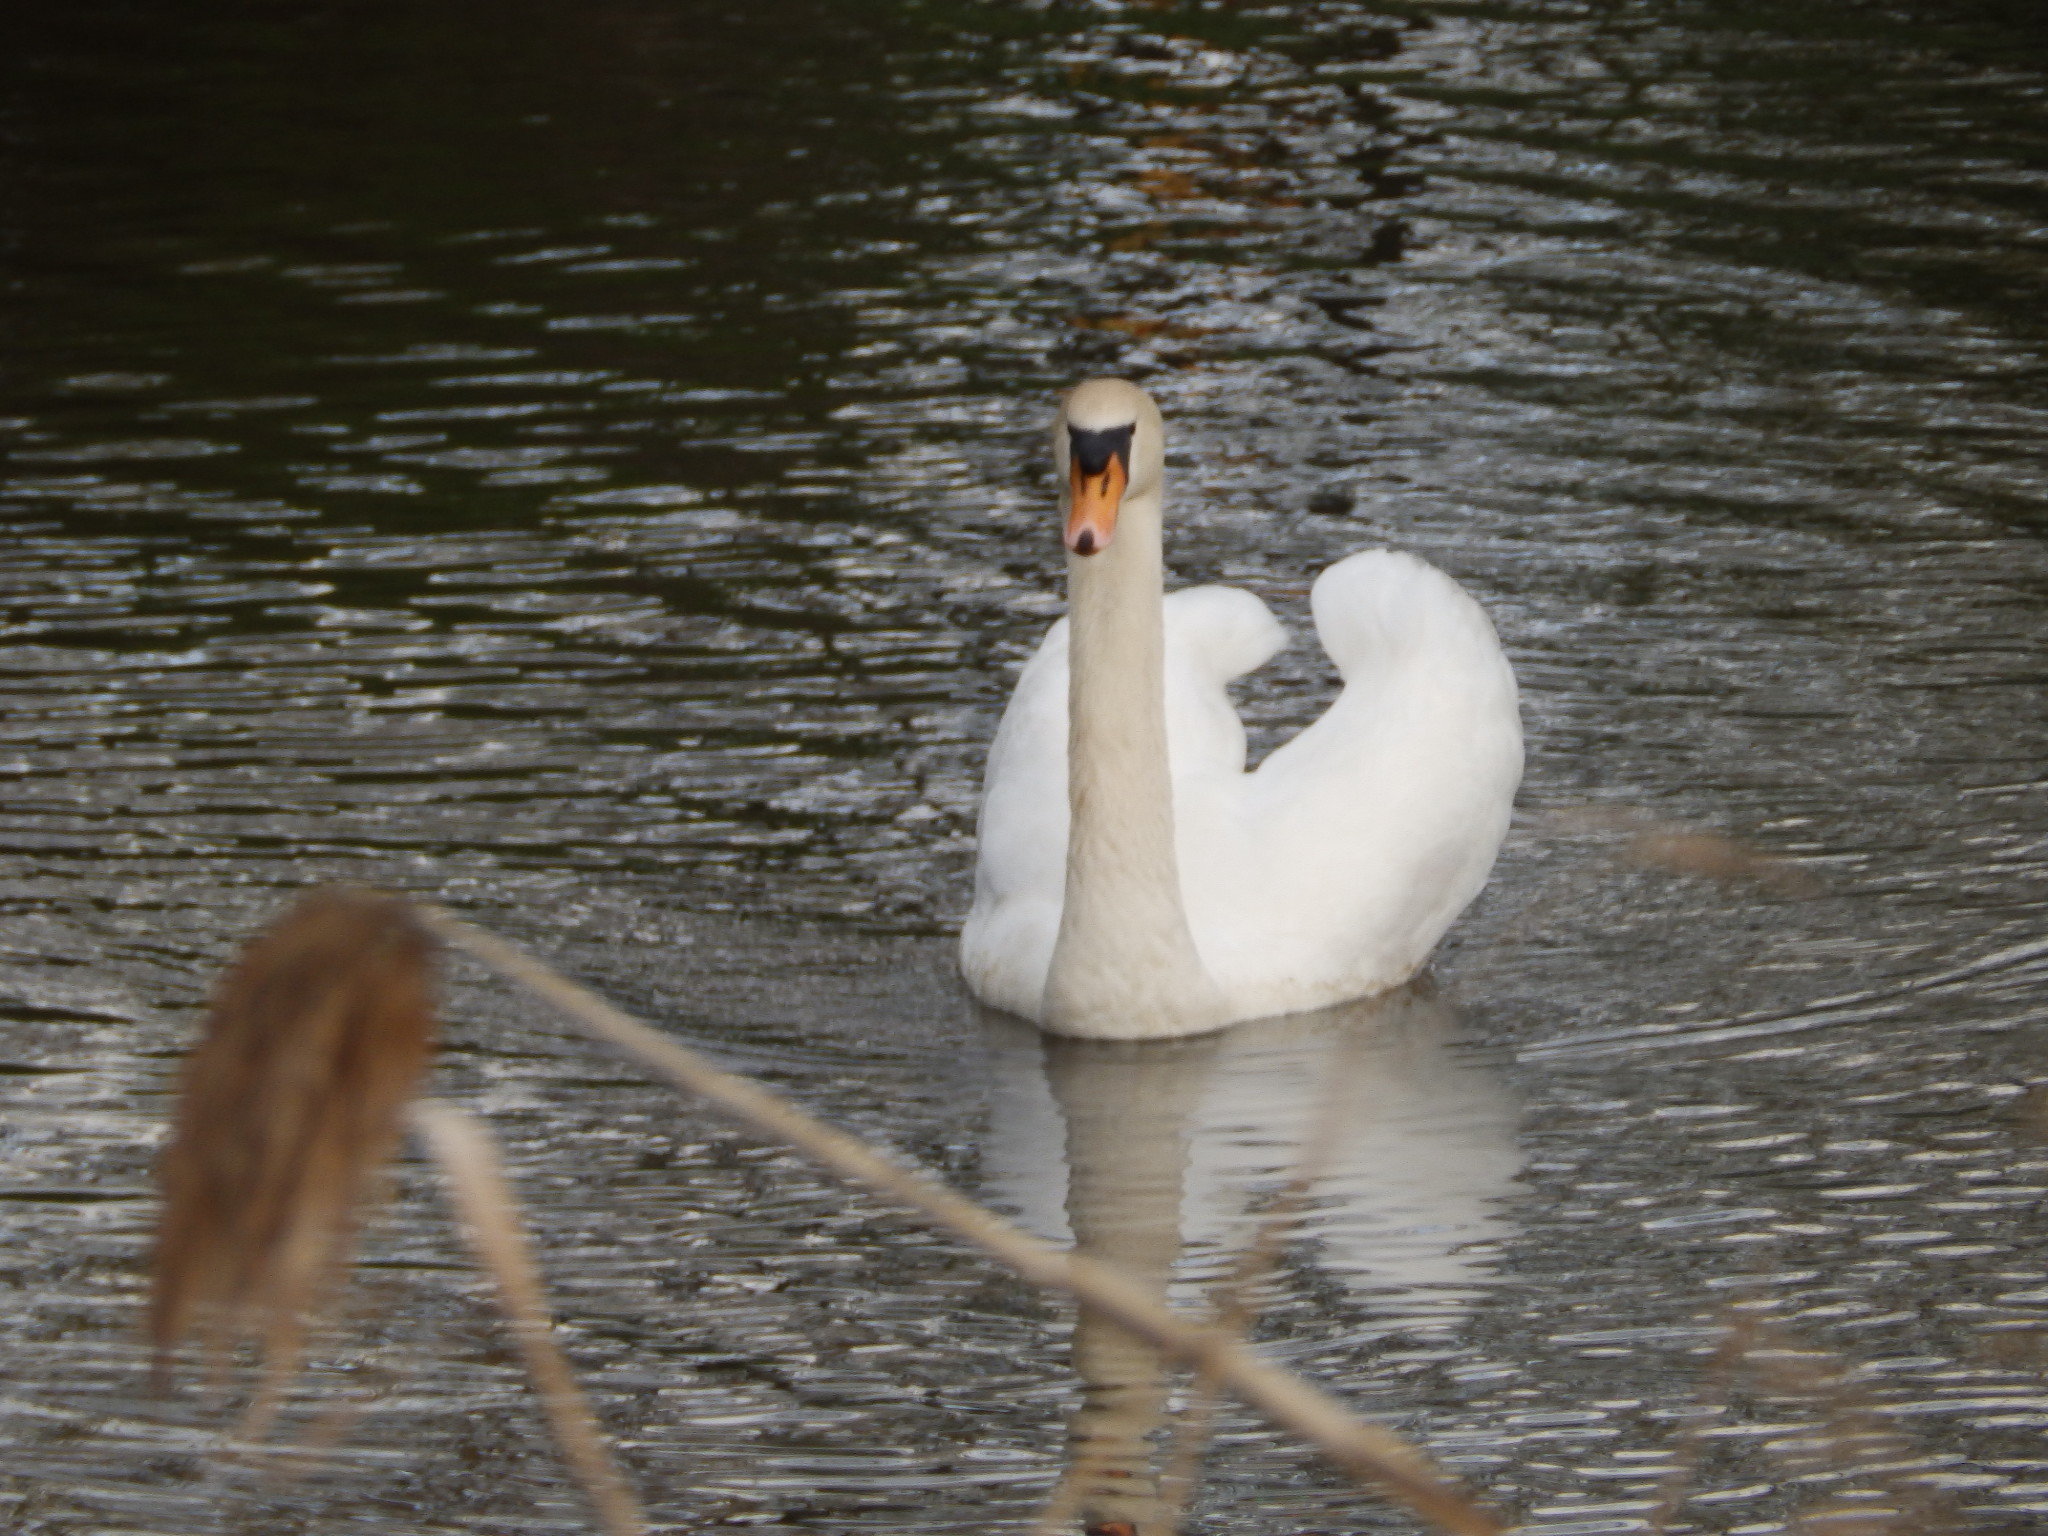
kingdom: Animalia
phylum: Chordata
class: Aves
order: Anseriformes
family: Anatidae
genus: Cygnus
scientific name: Cygnus olor
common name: Mute swan
